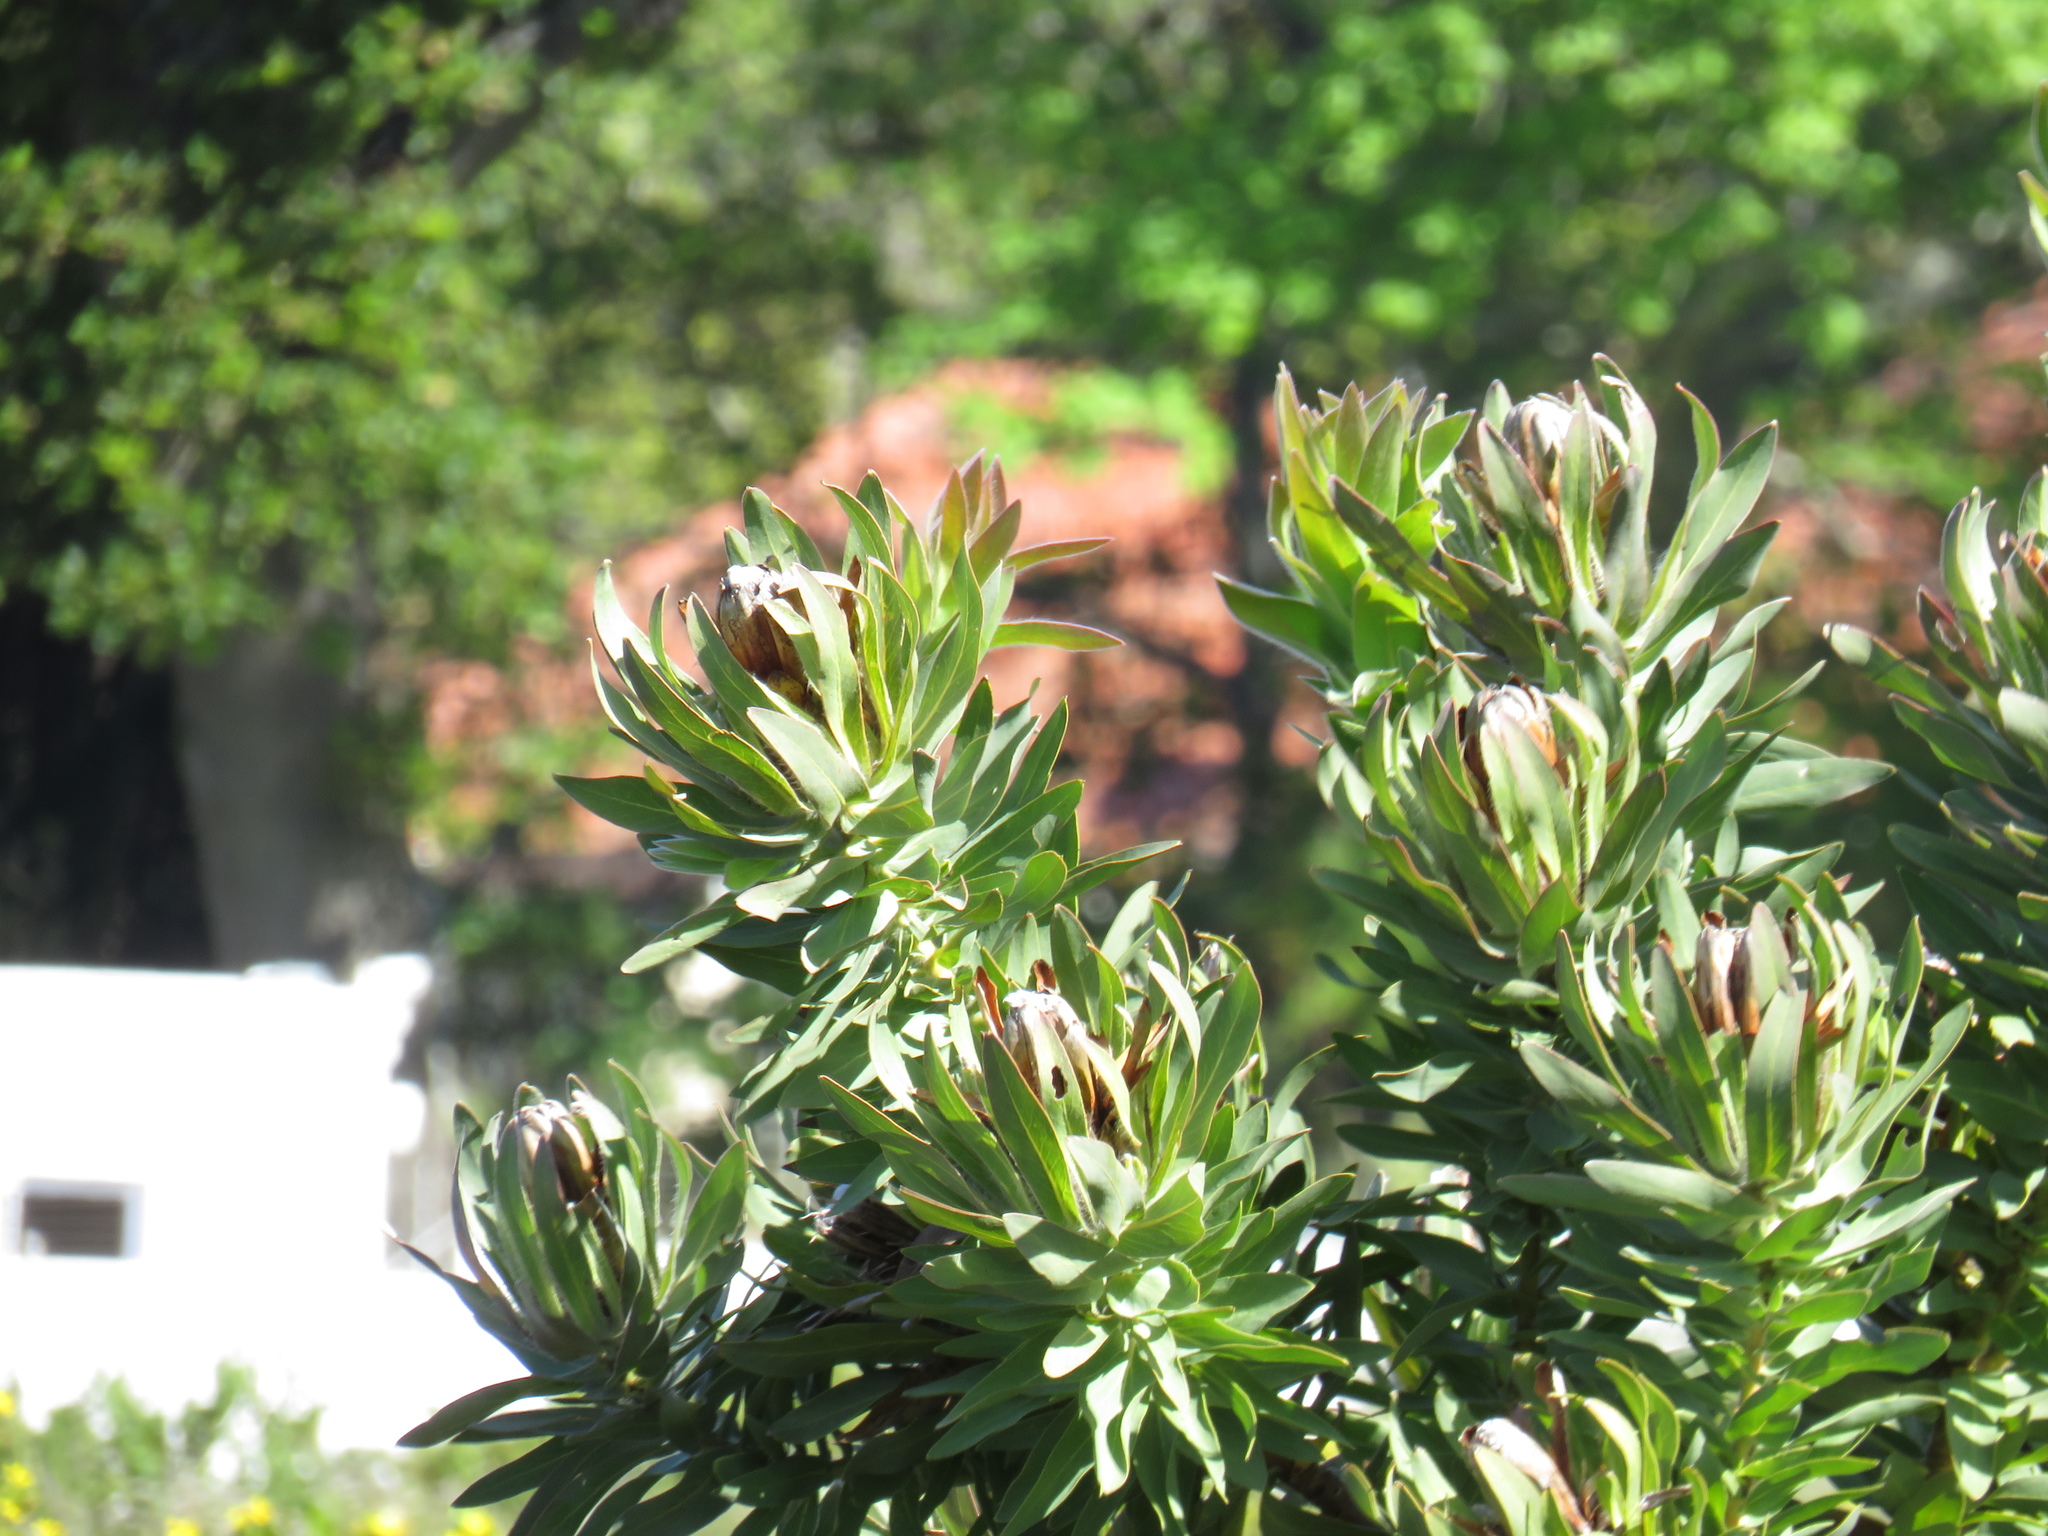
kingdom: Plantae
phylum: Tracheophyta
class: Magnoliopsida
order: Proteales
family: Proteaceae
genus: Protea
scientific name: Protea coronata
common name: Green sugarbush
